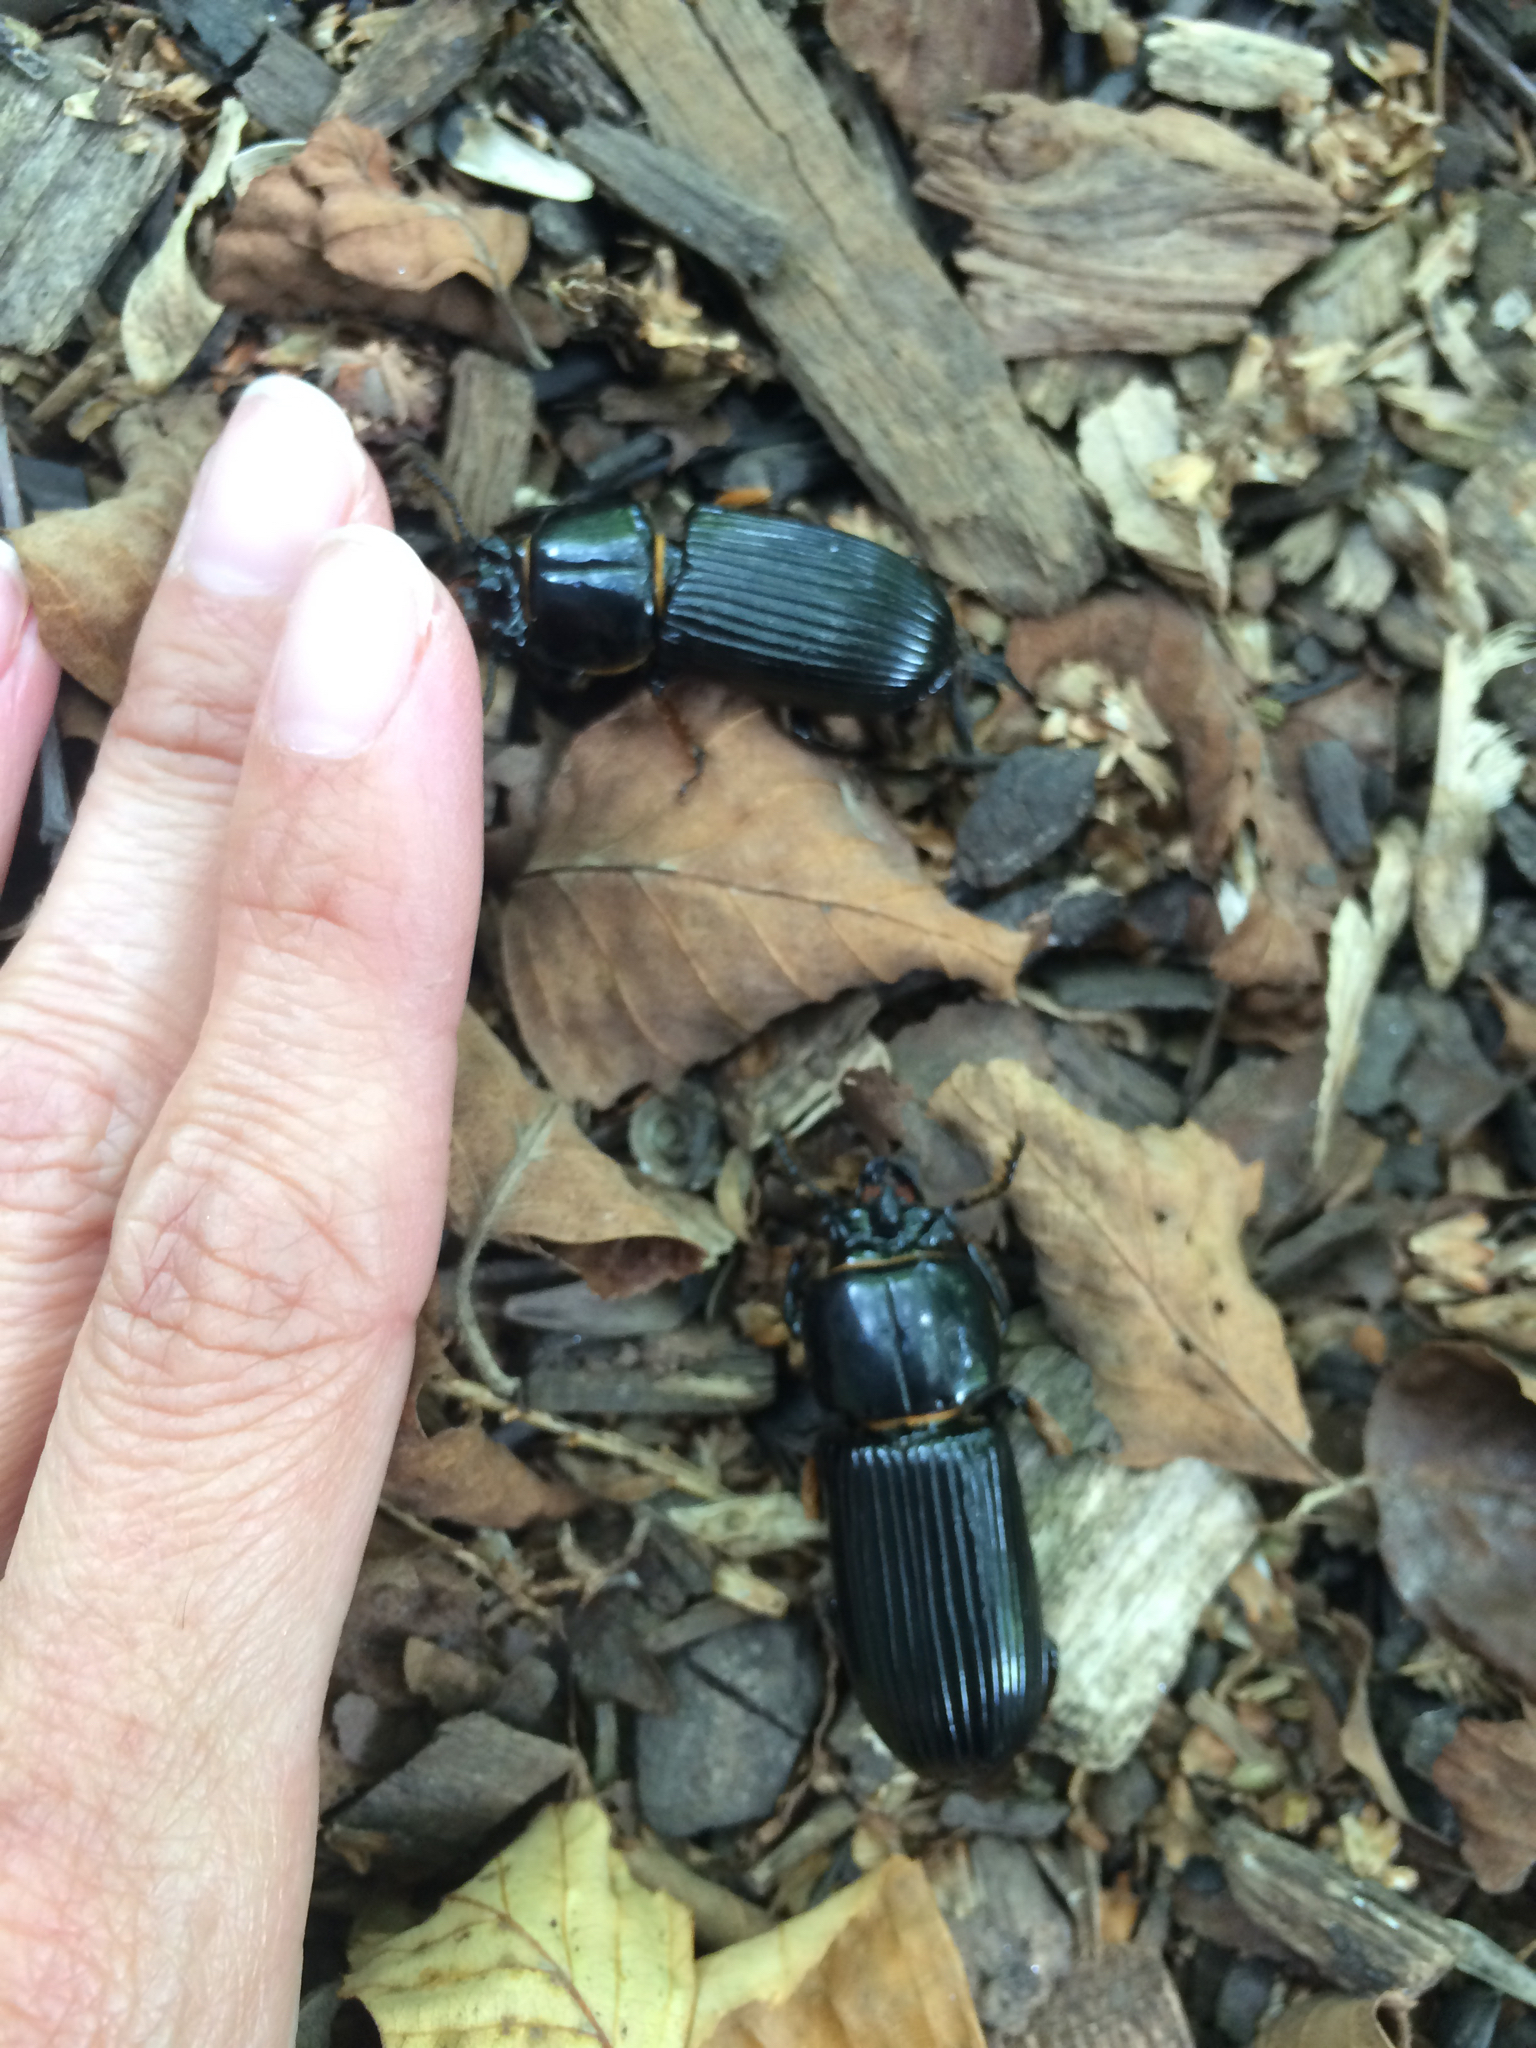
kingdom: Animalia
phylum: Arthropoda
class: Insecta
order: Coleoptera
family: Passalidae
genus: Odontotaenius
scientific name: Odontotaenius disjunctus
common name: Patent leather beetle
